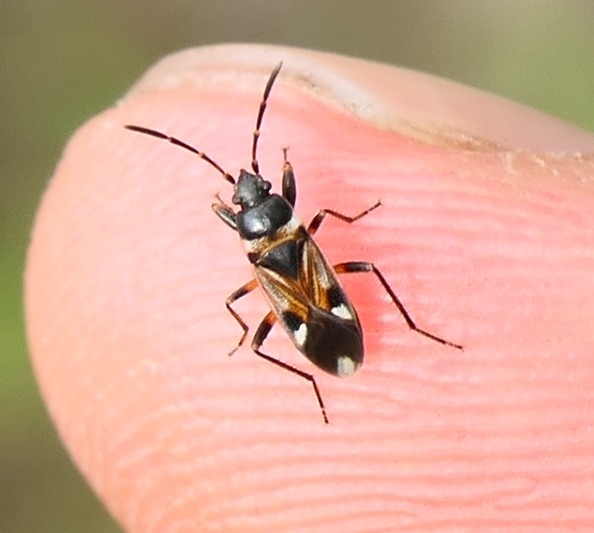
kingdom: Animalia
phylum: Arthropoda
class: Insecta
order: Hemiptera
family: Rhyparochromidae
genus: Raglius
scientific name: Raglius alboacuminatus
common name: Dirt-colored seed bug
